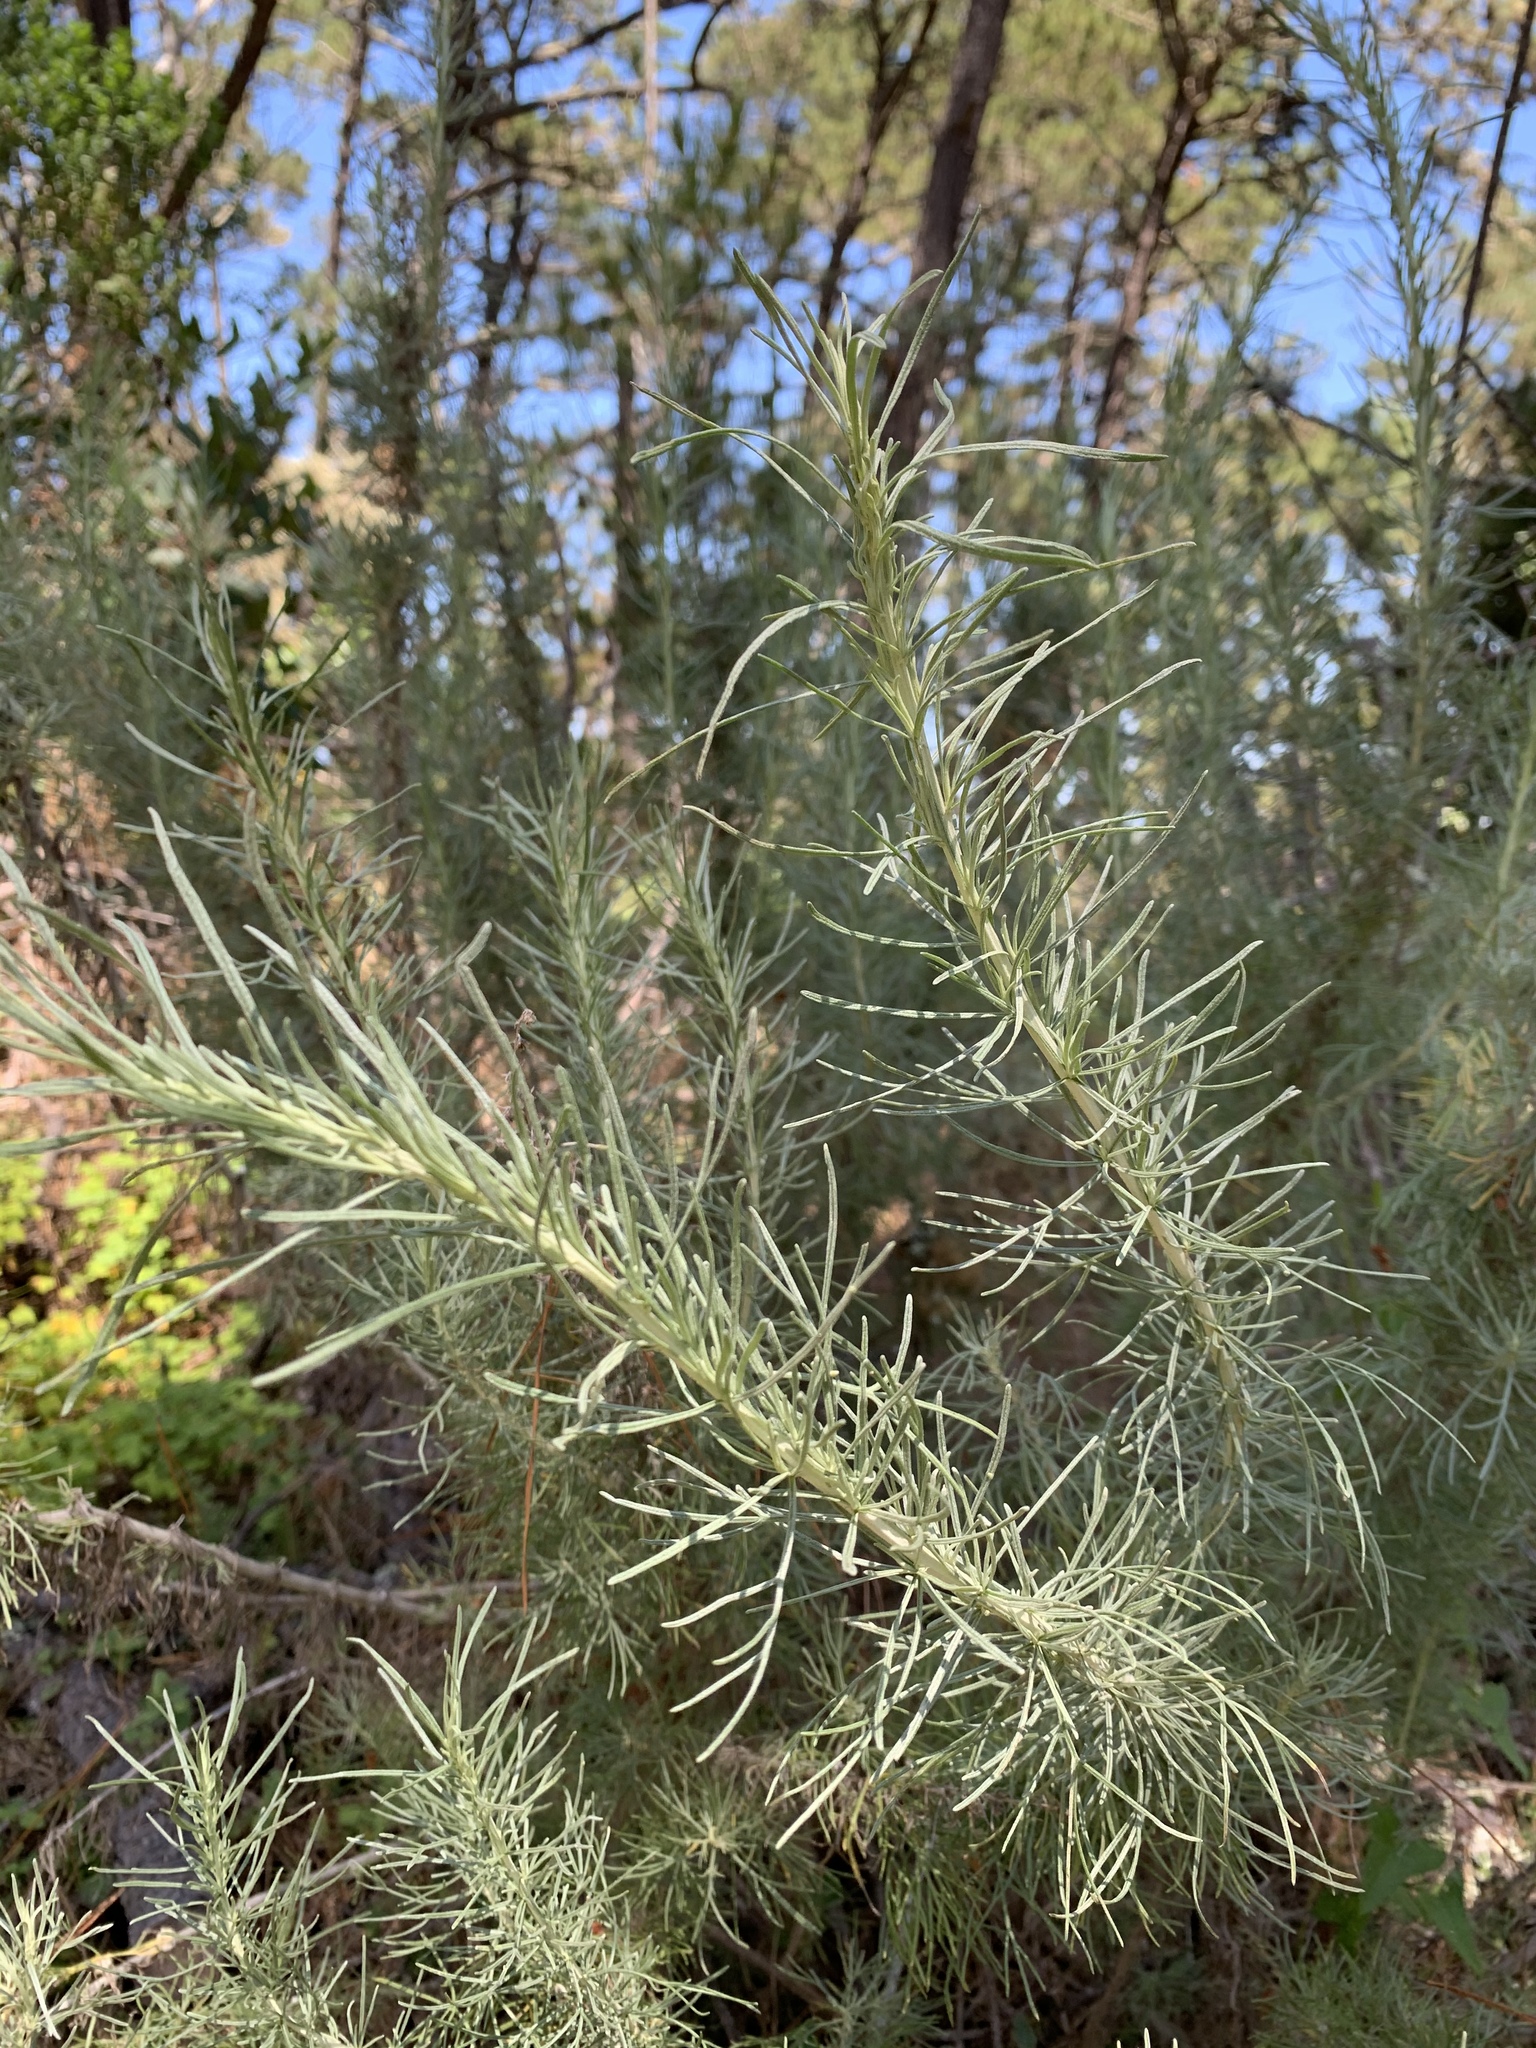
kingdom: Plantae
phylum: Tracheophyta
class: Magnoliopsida
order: Asterales
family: Asteraceae
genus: Artemisia
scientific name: Artemisia californica
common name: California sagebrush
